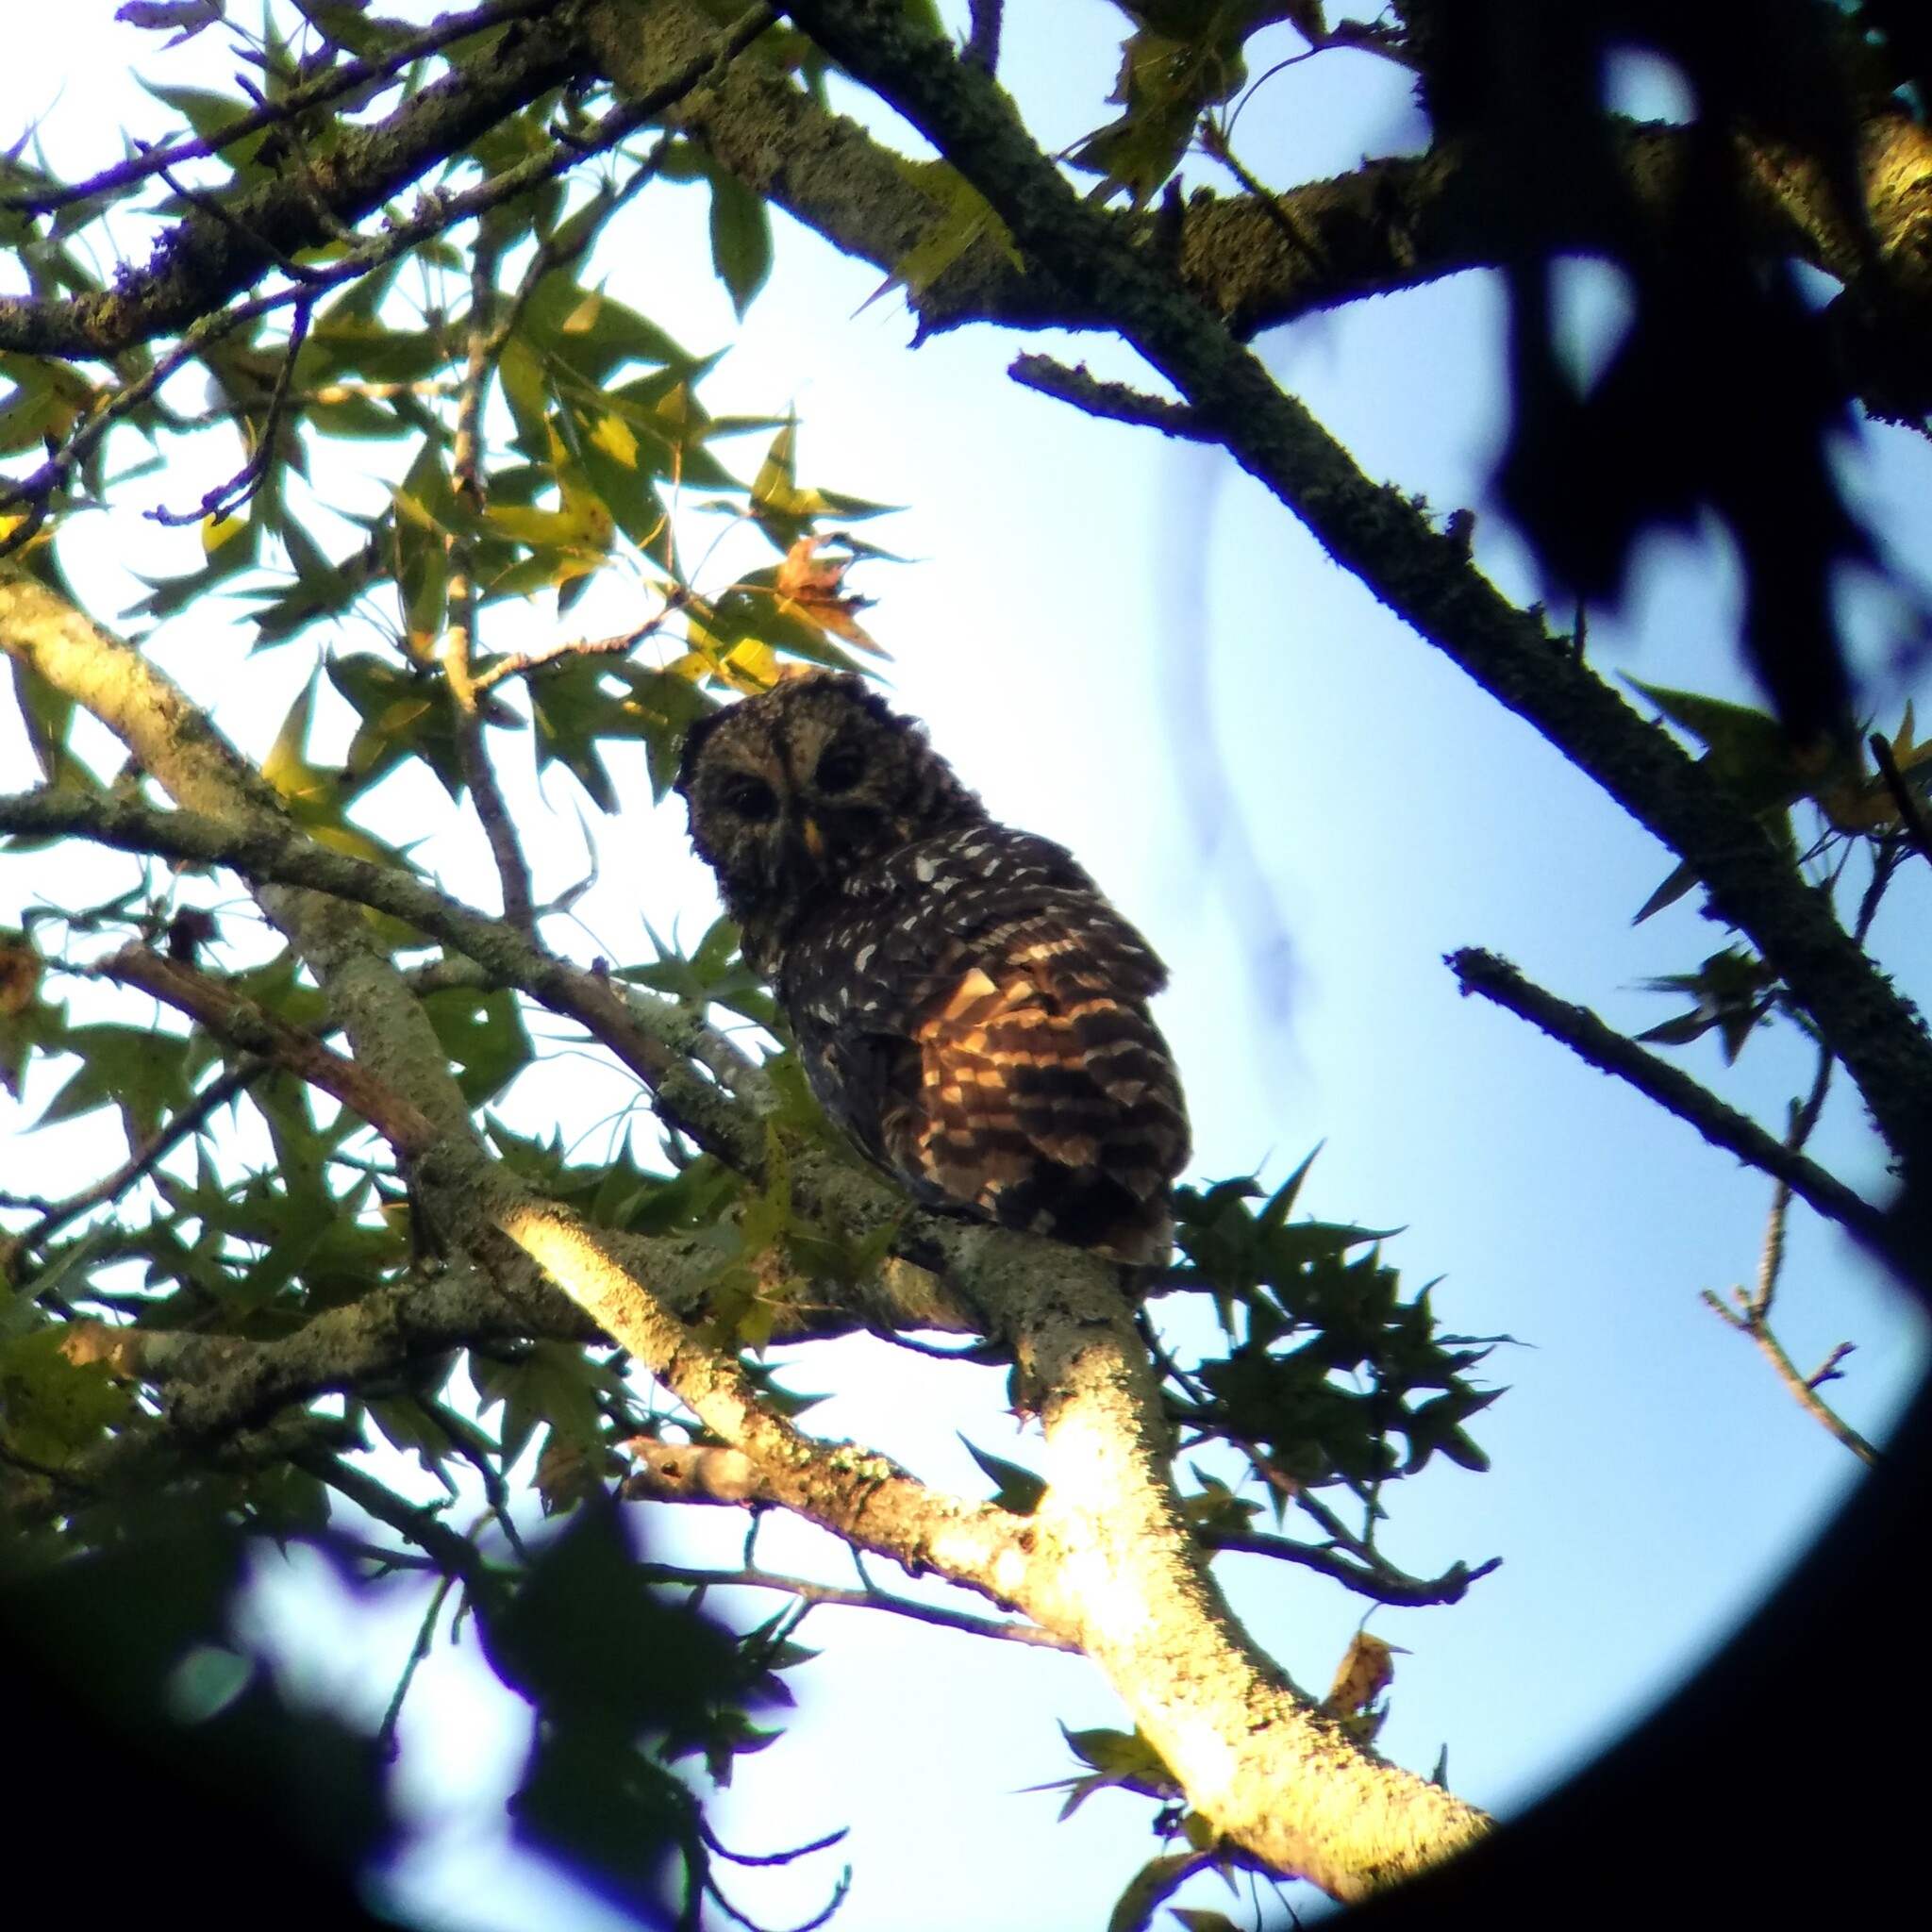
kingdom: Animalia
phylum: Chordata
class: Aves
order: Strigiformes
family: Strigidae
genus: Strix
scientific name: Strix varia
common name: Barred owl
